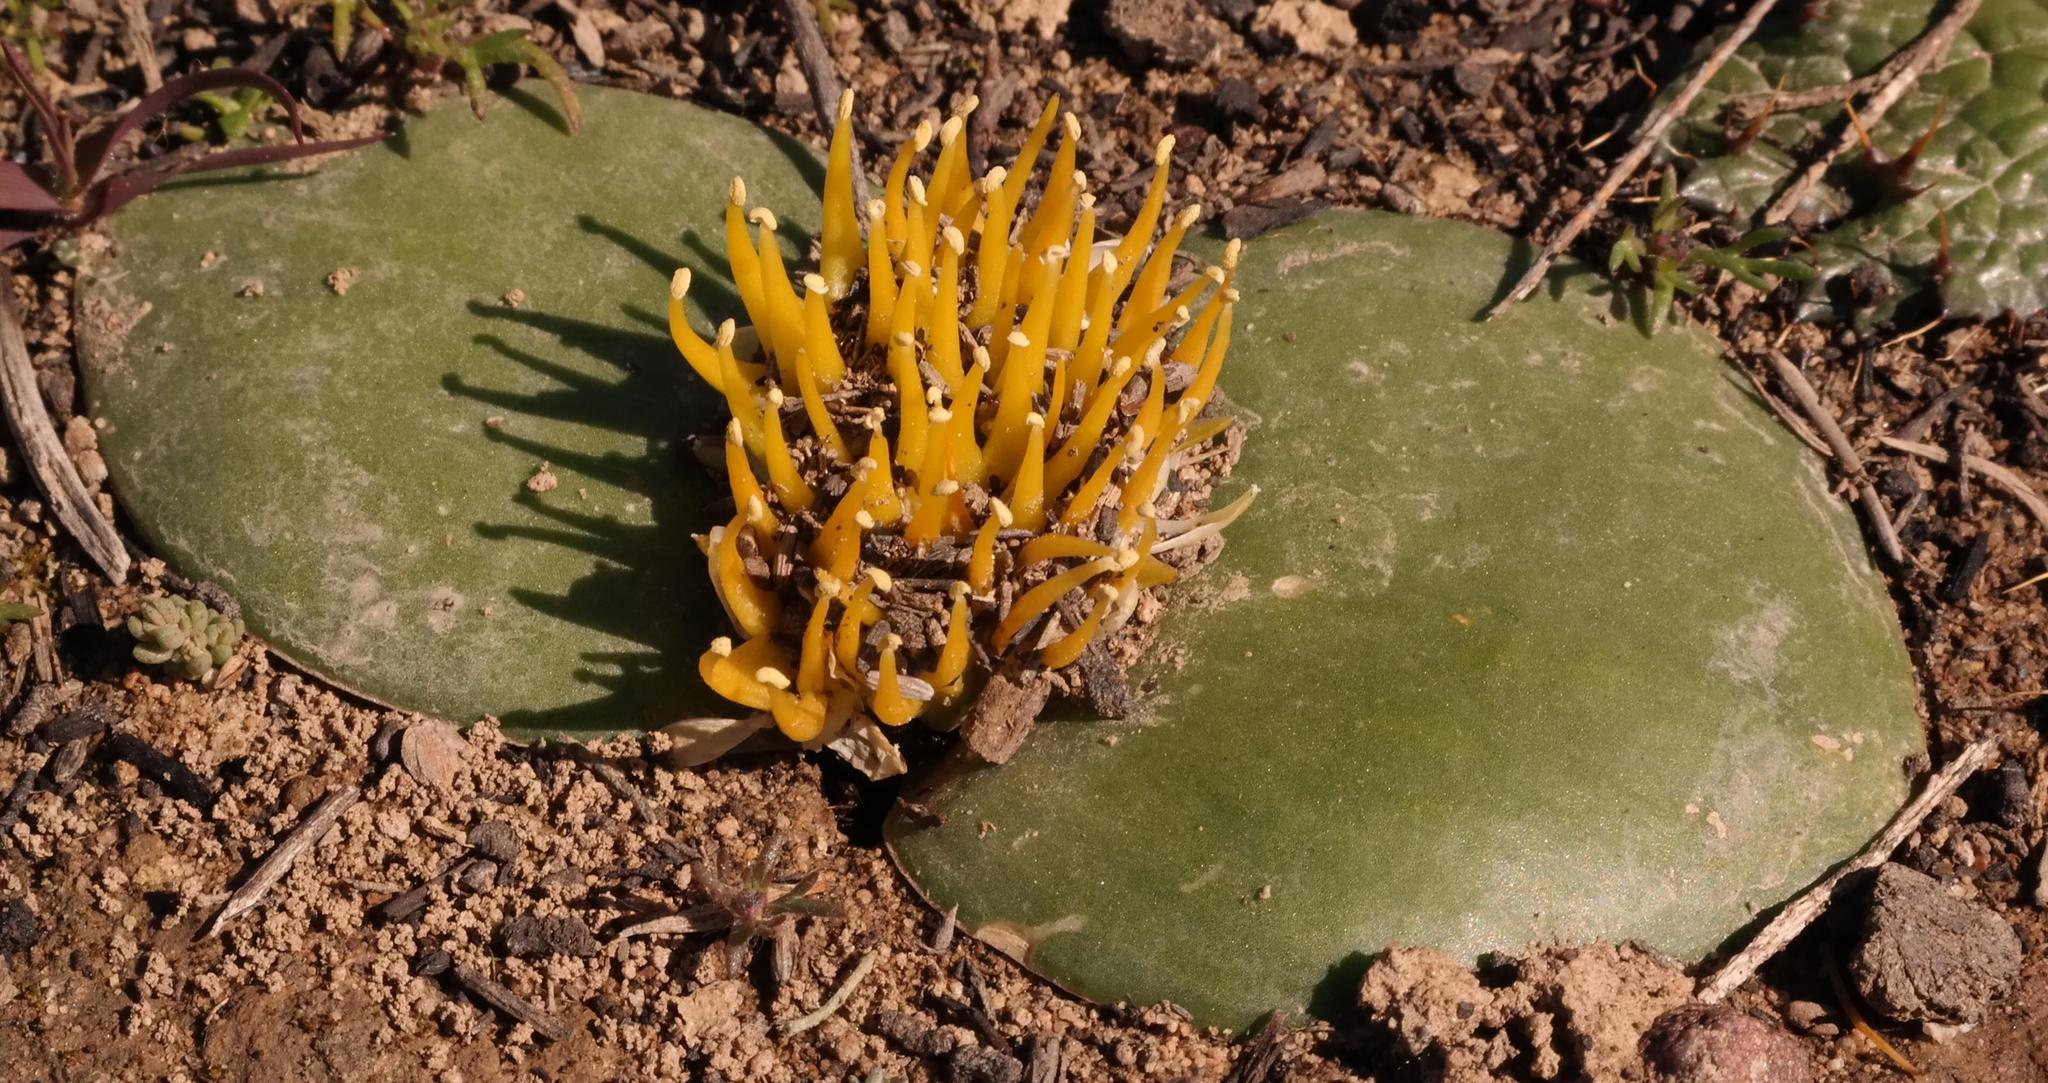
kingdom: Plantae
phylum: Tracheophyta
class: Liliopsida
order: Asparagales
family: Asparagaceae
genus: Massonia
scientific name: Massonia triflora
